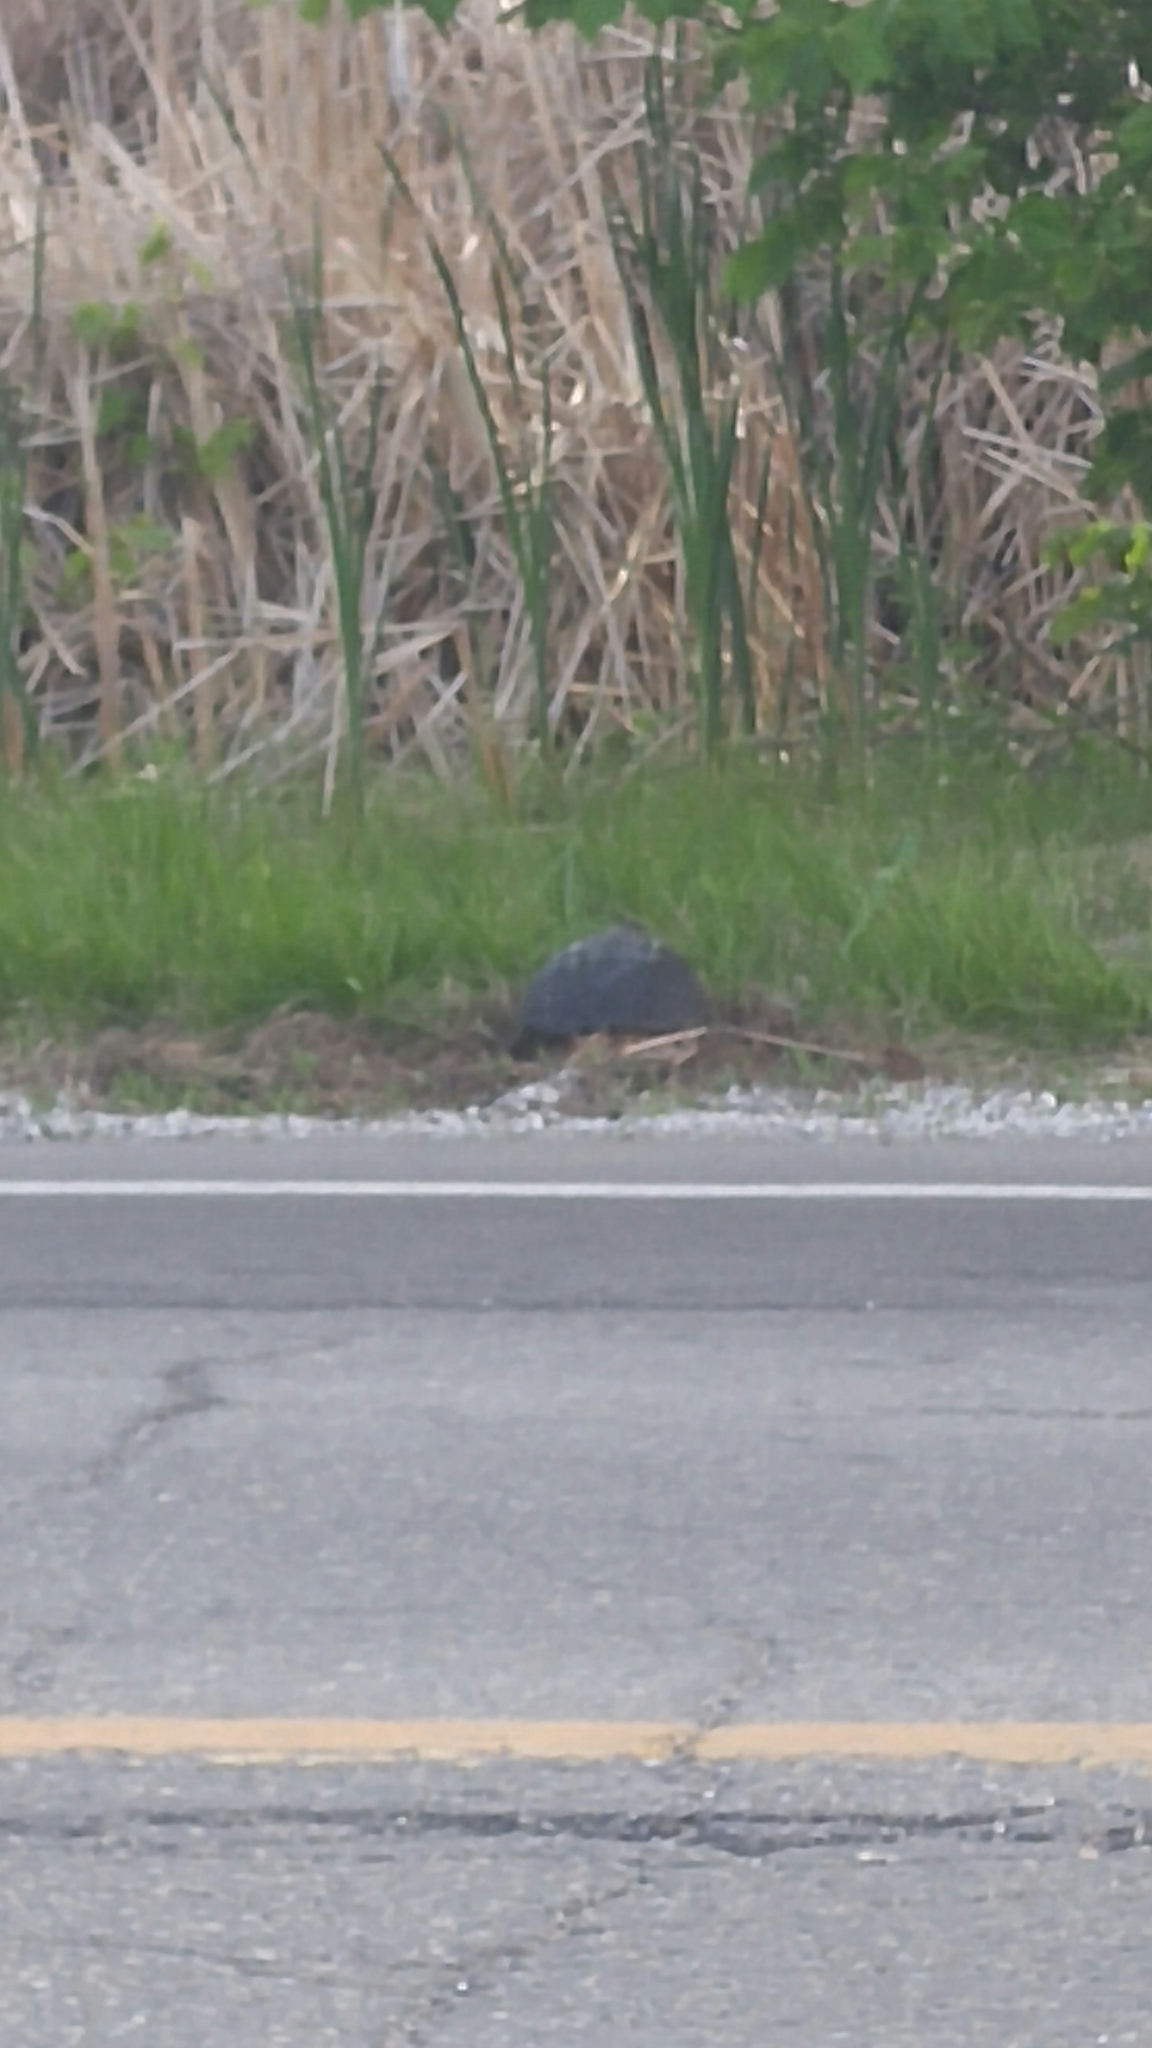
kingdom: Animalia
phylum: Chordata
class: Testudines
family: Chelydridae
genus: Chelydra
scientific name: Chelydra serpentina
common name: Common snapping turtle
